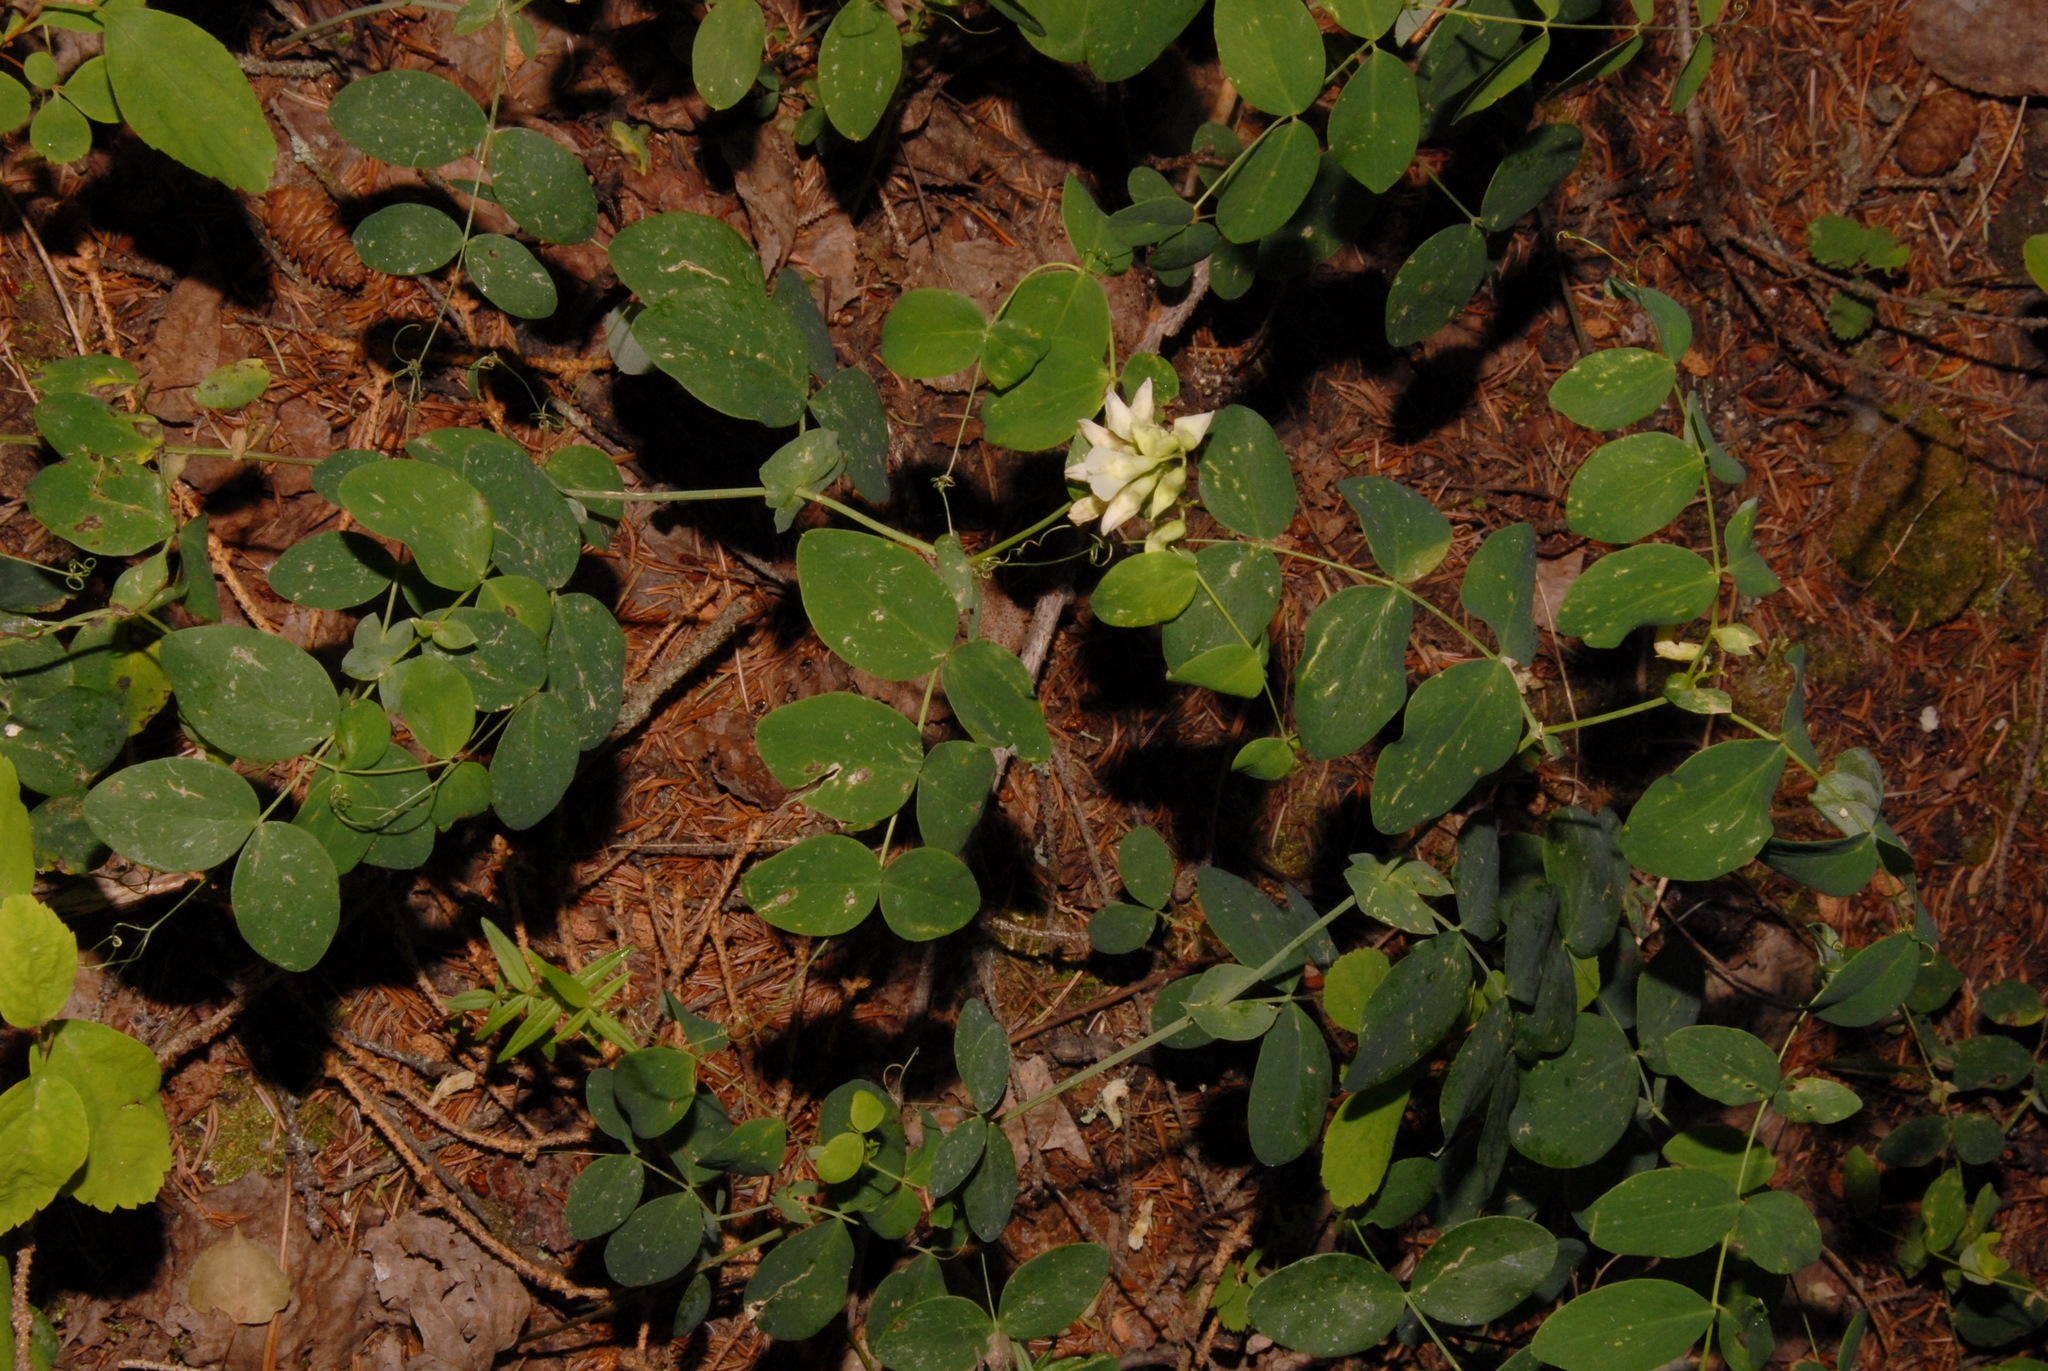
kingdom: Plantae
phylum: Tracheophyta
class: Magnoliopsida
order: Fabales
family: Fabaceae
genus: Lathyrus
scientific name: Lathyrus ochroleucus
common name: Pale vetchling
